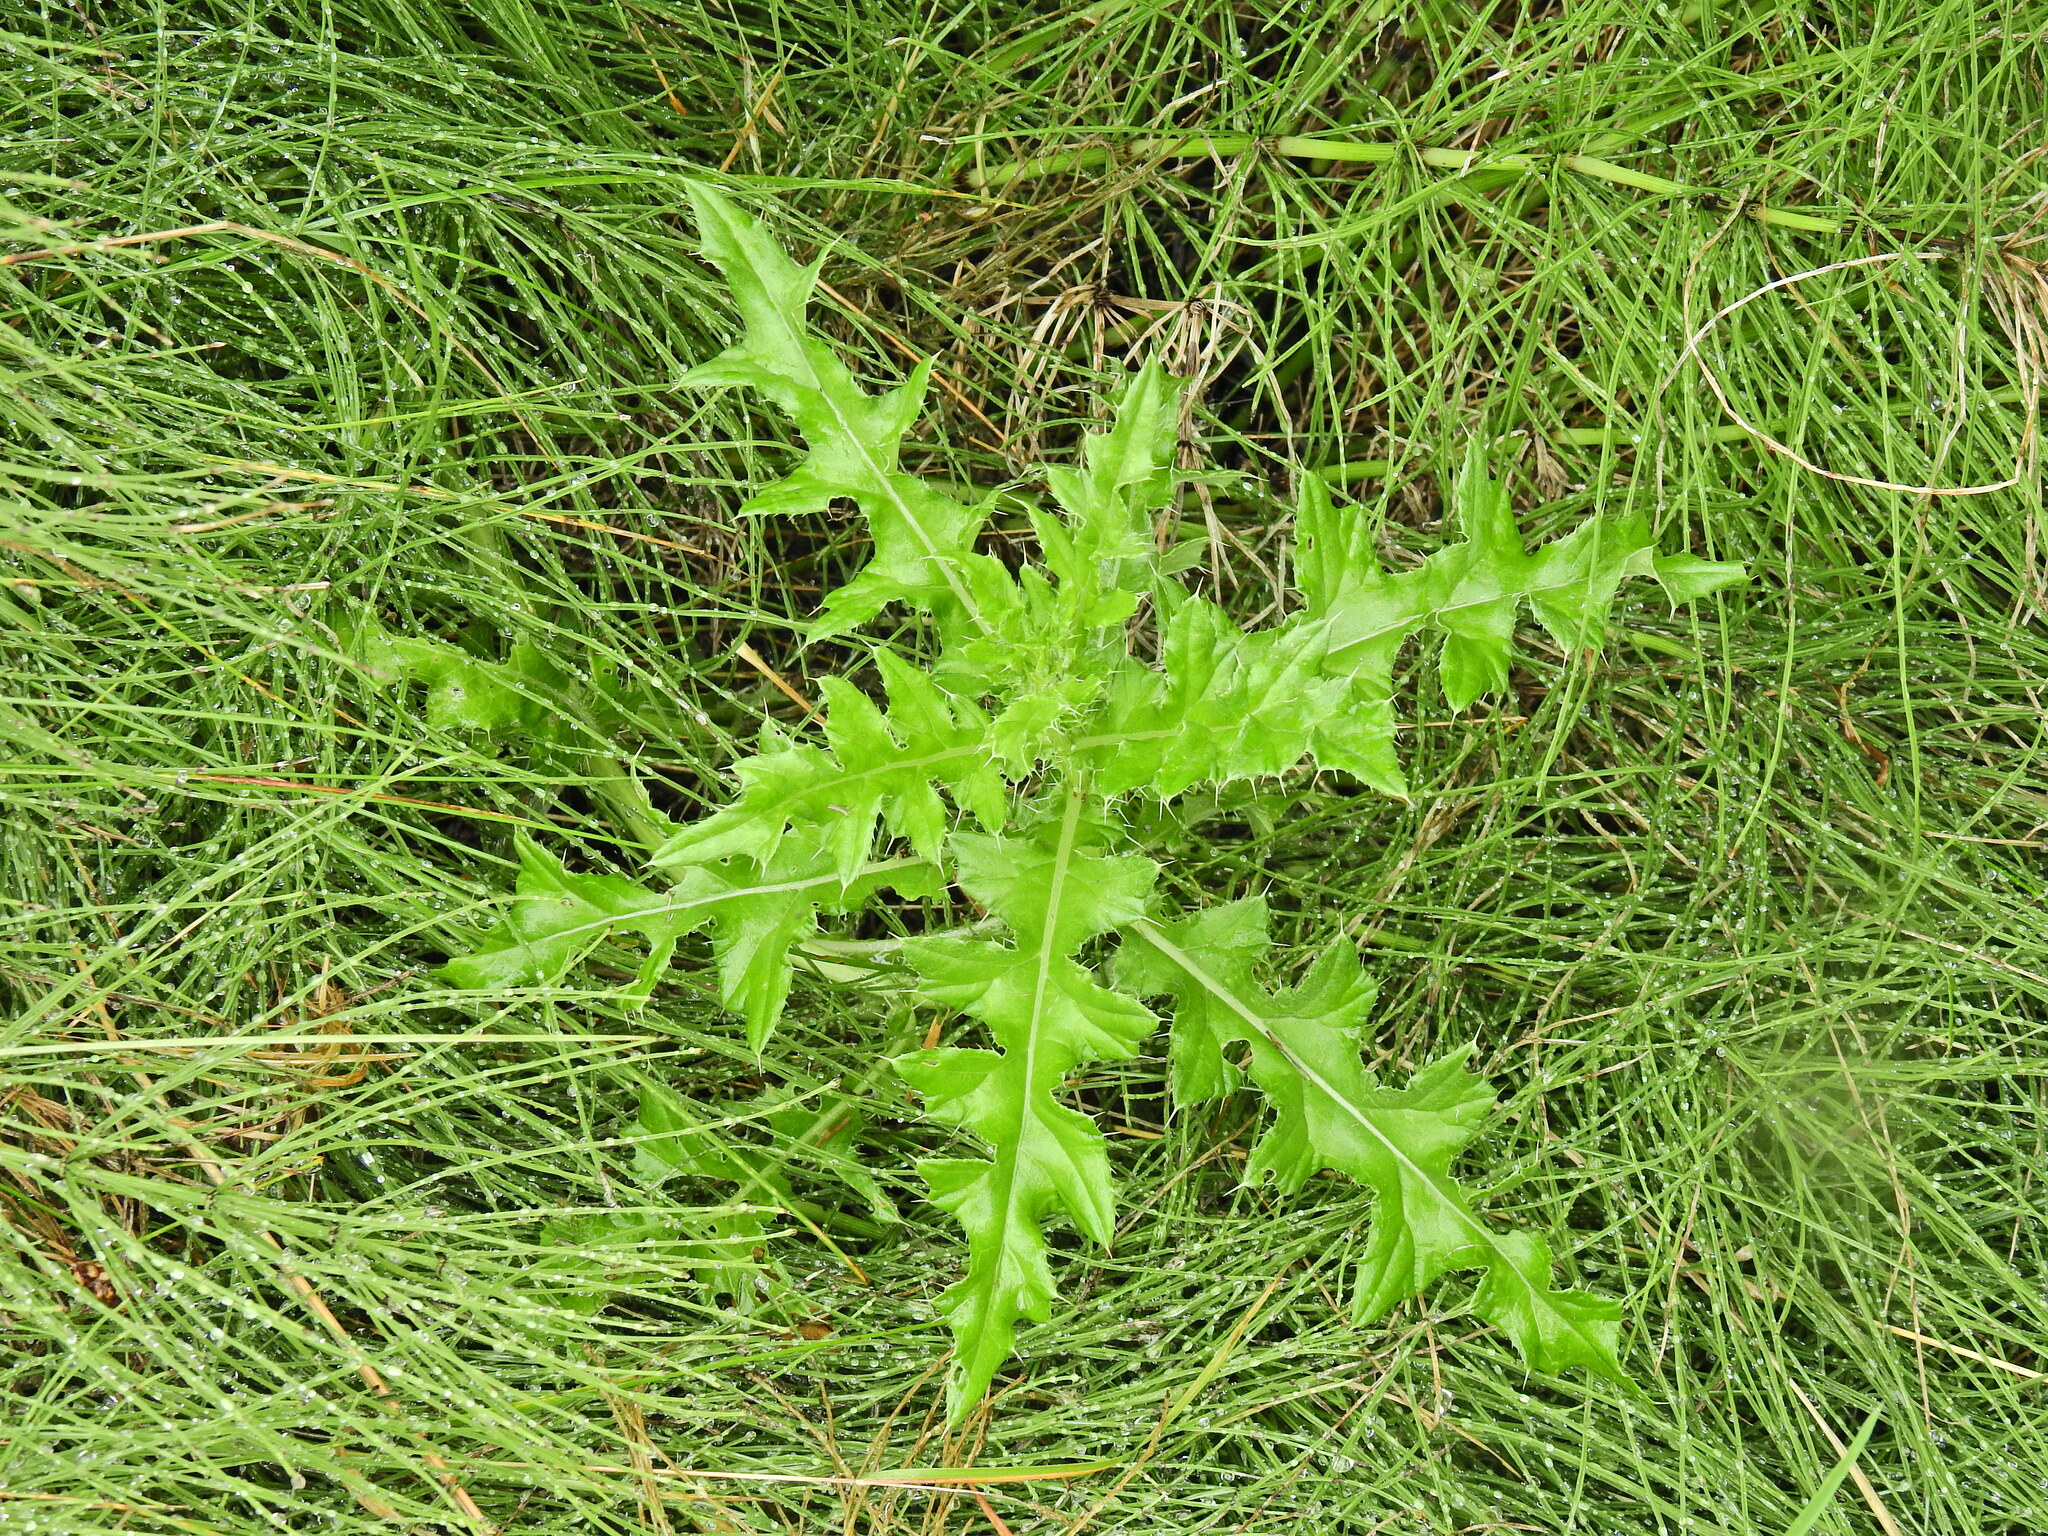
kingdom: Plantae
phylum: Tracheophyta
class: Magnoliopsida
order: Asterales
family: Asteraceae
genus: Cirsium
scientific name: Cirsium arvense
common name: Creeping thistle
